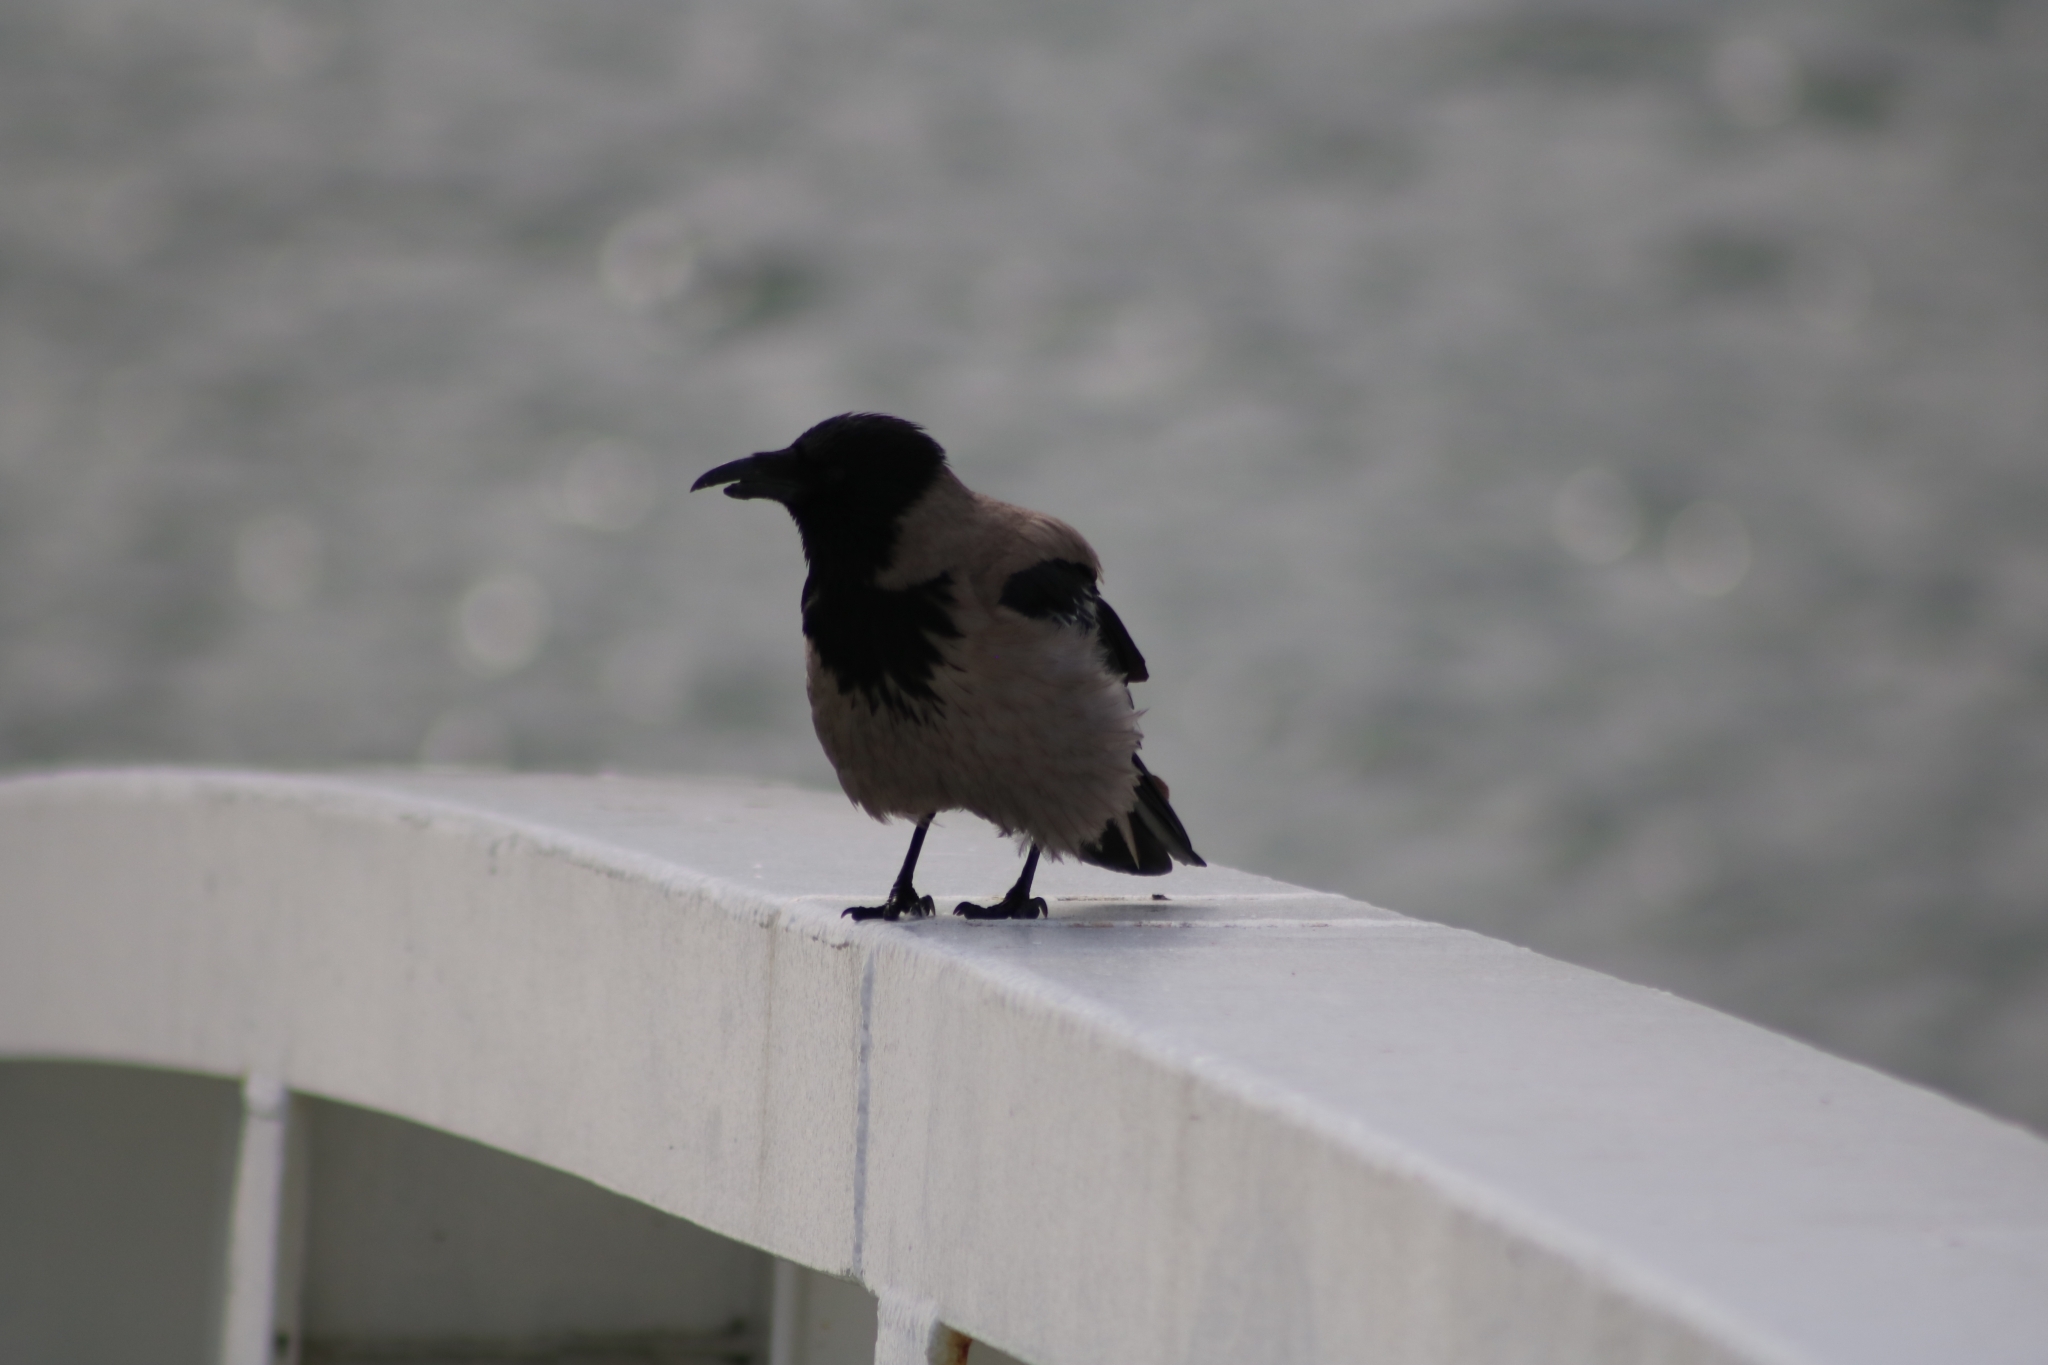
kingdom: Animalia
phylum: Chordata
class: Aves
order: Passeriformes
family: Corvidae
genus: Corvus
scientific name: Corvus cornix
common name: Hooded crow
